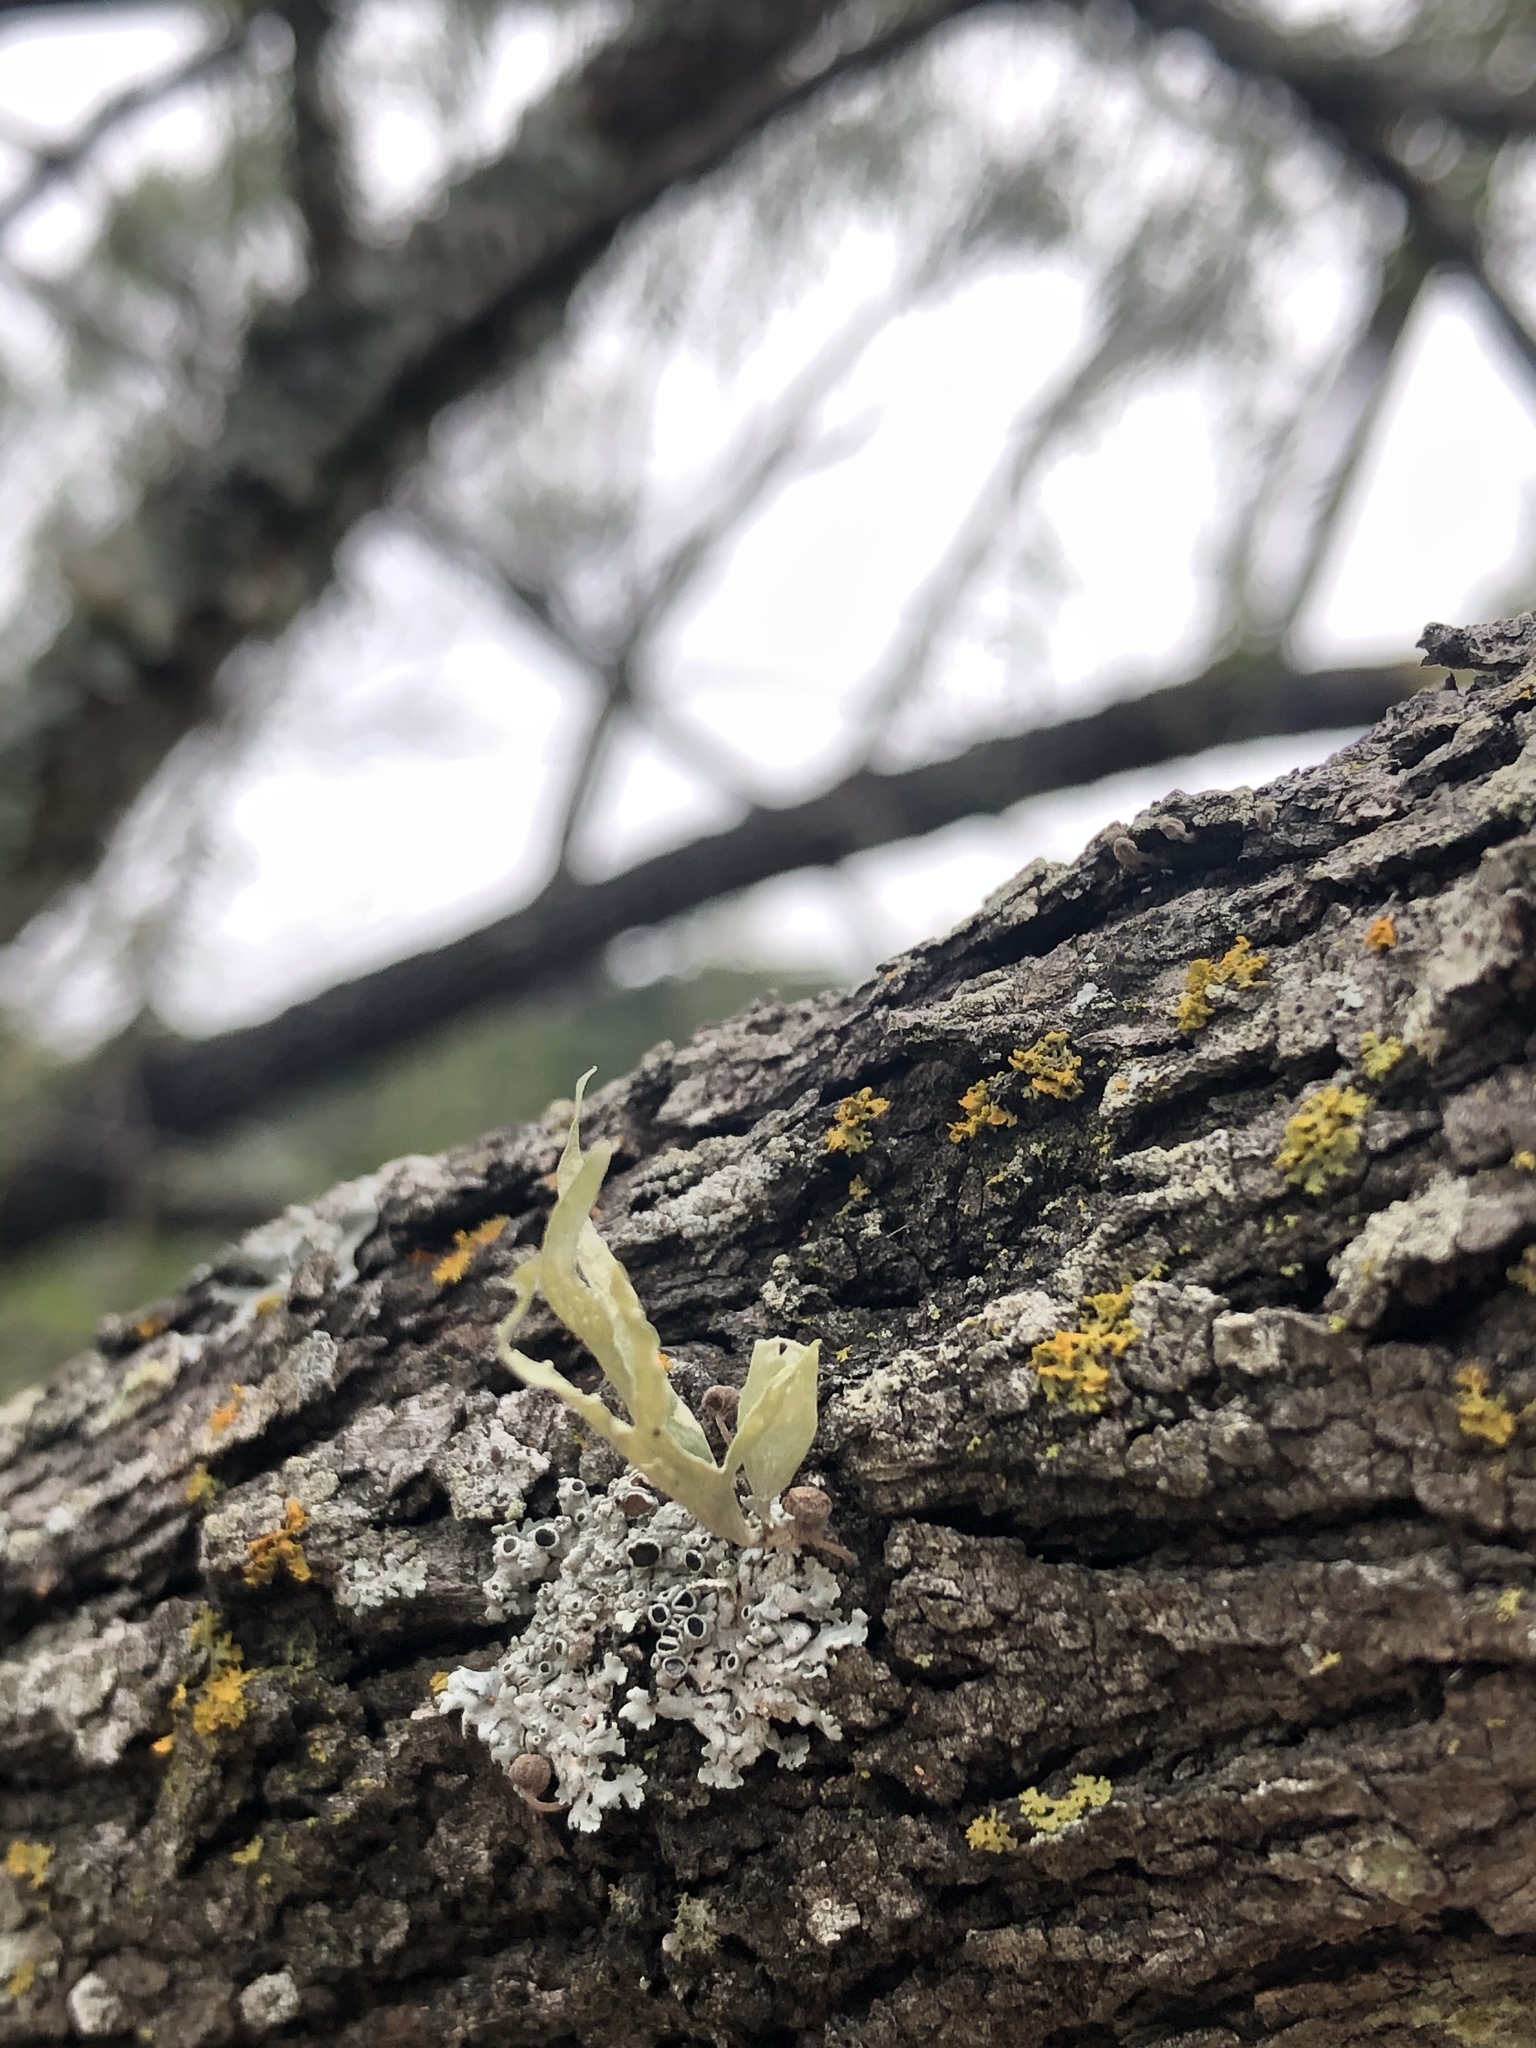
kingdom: Fungi
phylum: Ascomycota
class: Lecanoromycetes
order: Lecanorales
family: Ramalinaceae
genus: Ramalina
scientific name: Ramalina celastri
